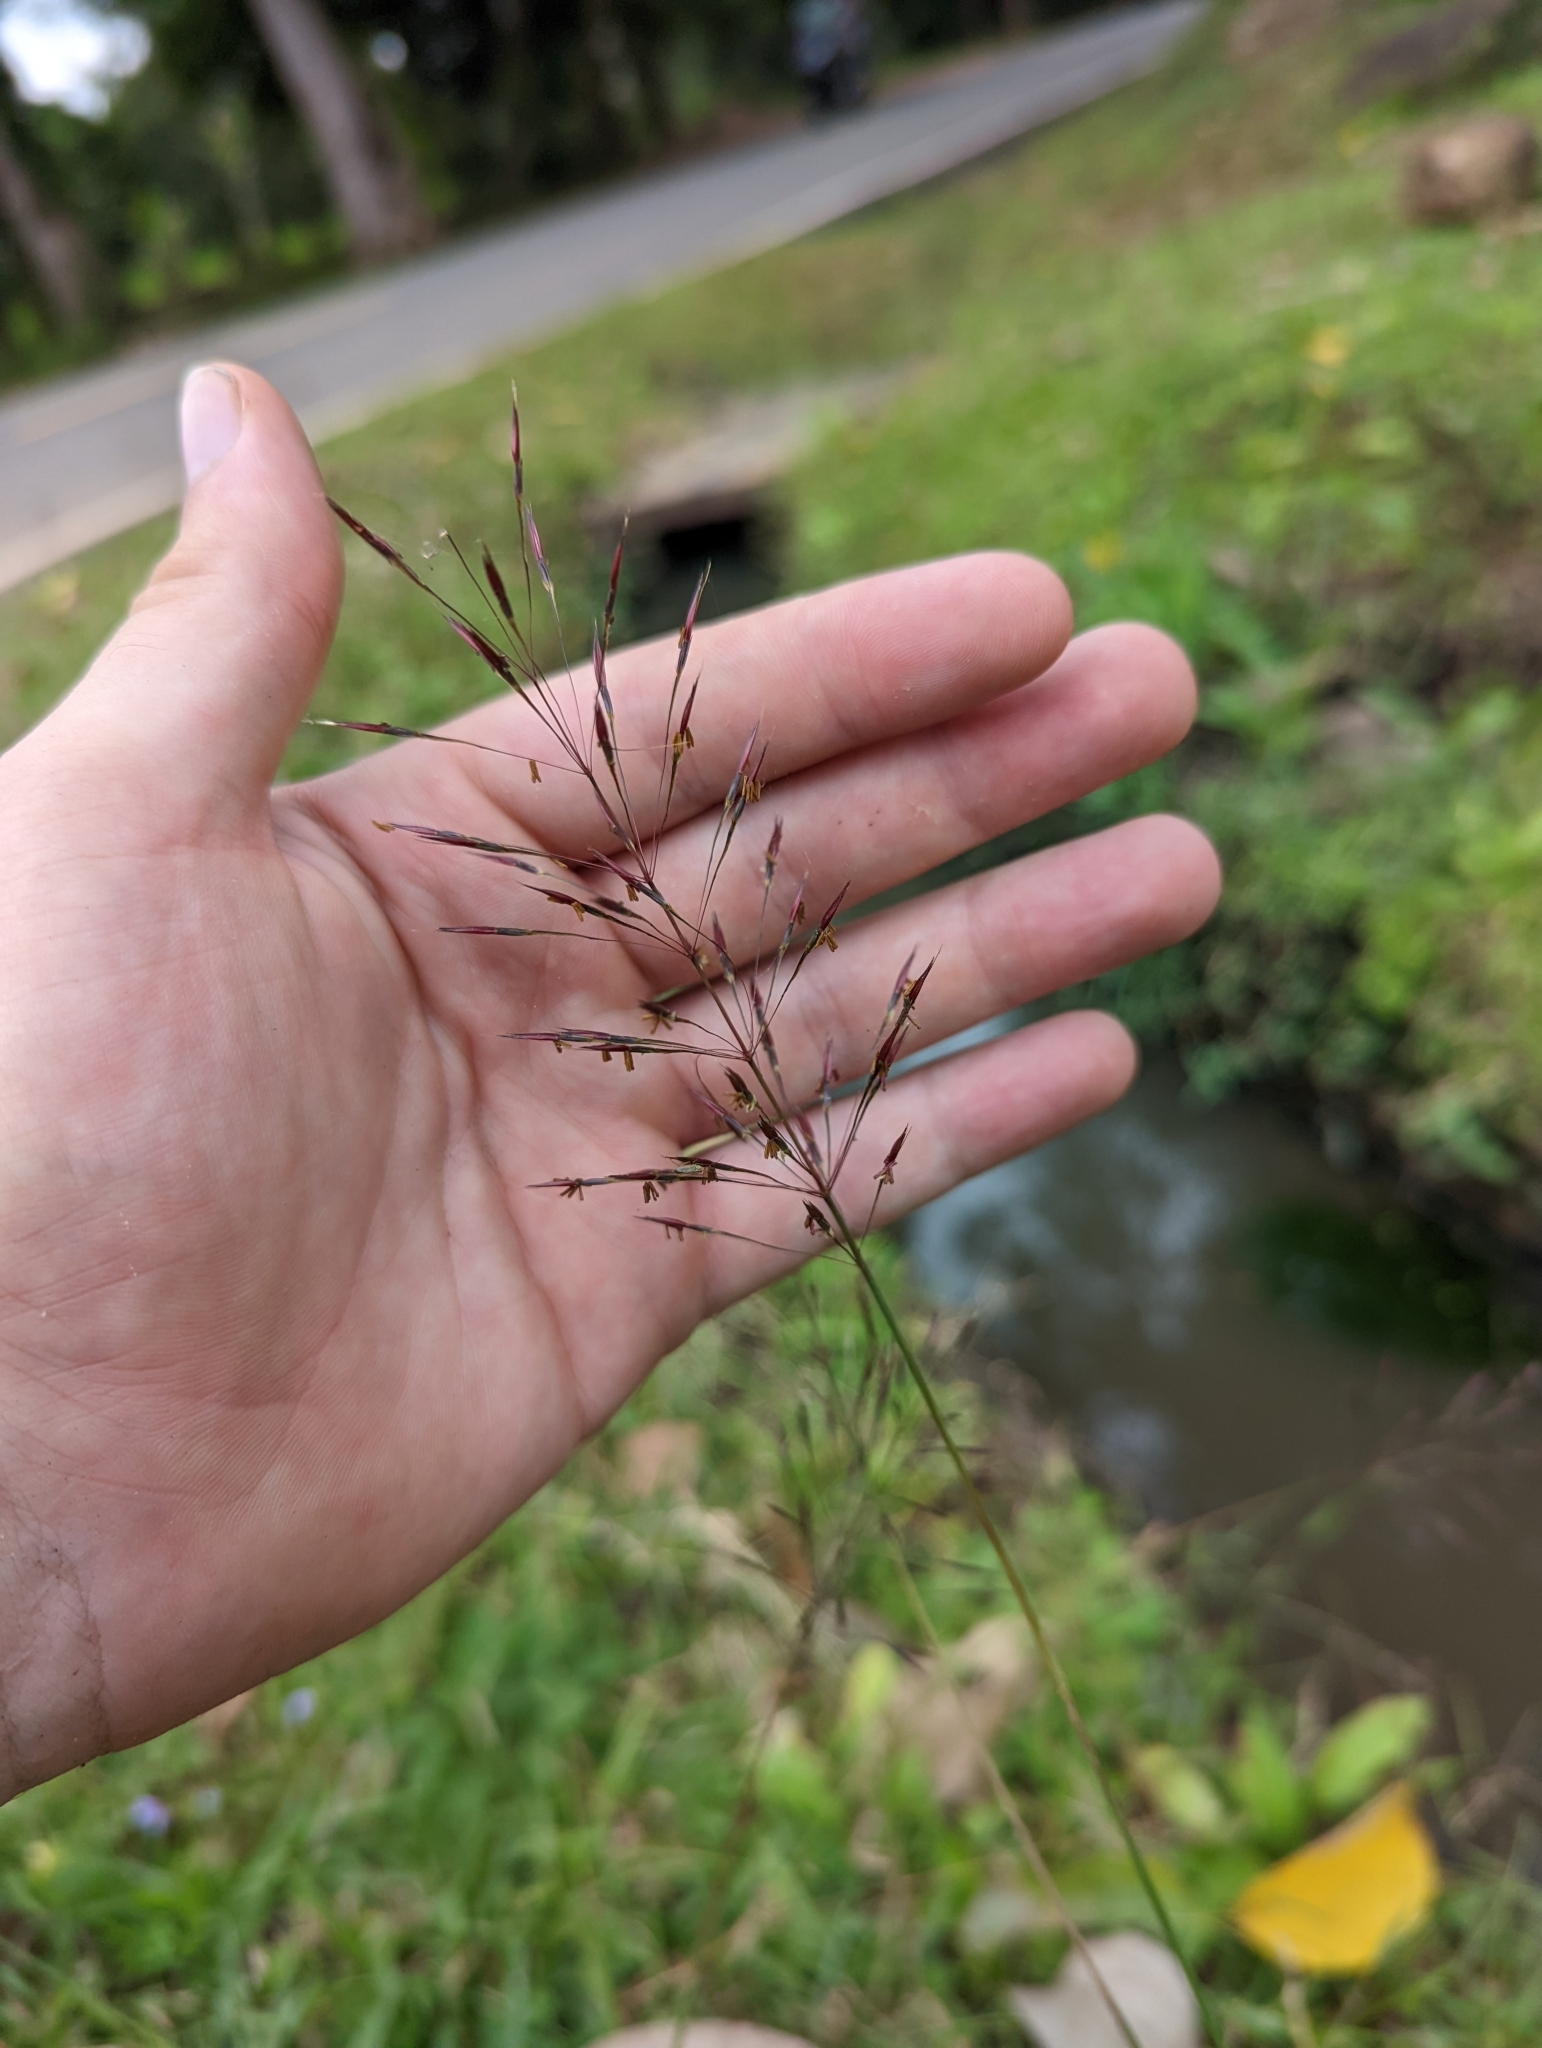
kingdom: Plantae
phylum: Tracheophyta
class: Liliopsida
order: Poales
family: Poaceae
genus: Chrysopogon
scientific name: Chrysopogon aciculatus
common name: Pilipiliula
